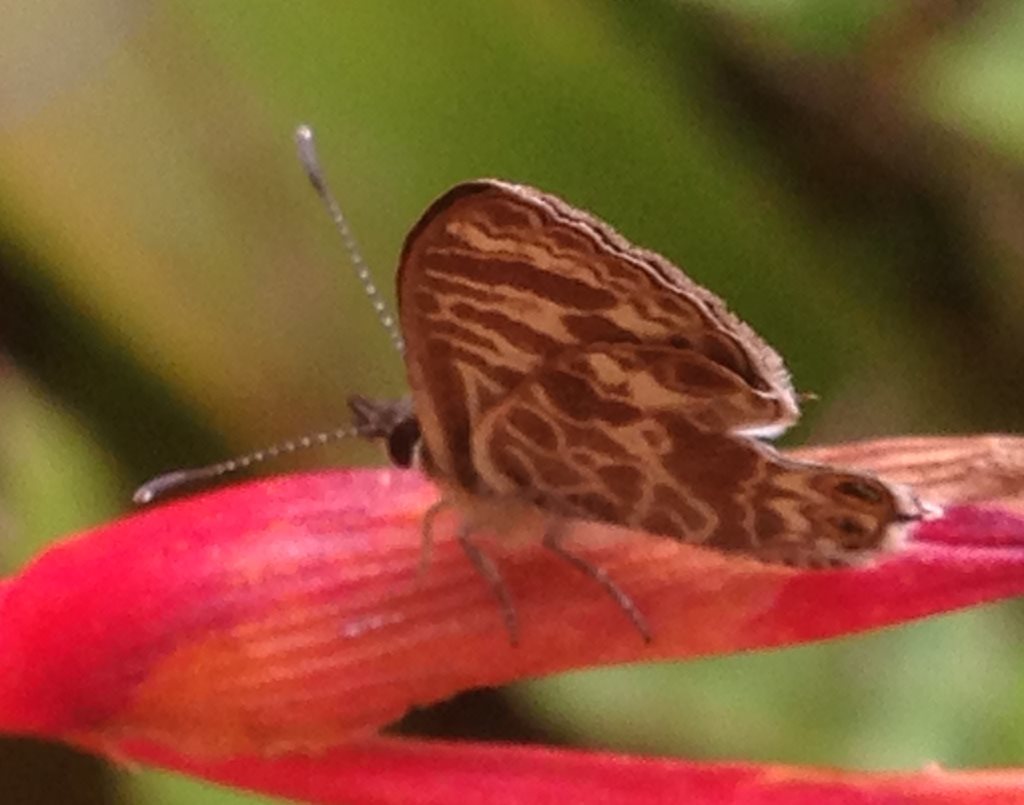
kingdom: Animalia
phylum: Arthropoda
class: Insecta
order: Lepidoptera
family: Lycaenidae
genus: Leptotes
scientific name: Leptotes plinius
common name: Zebra blue
